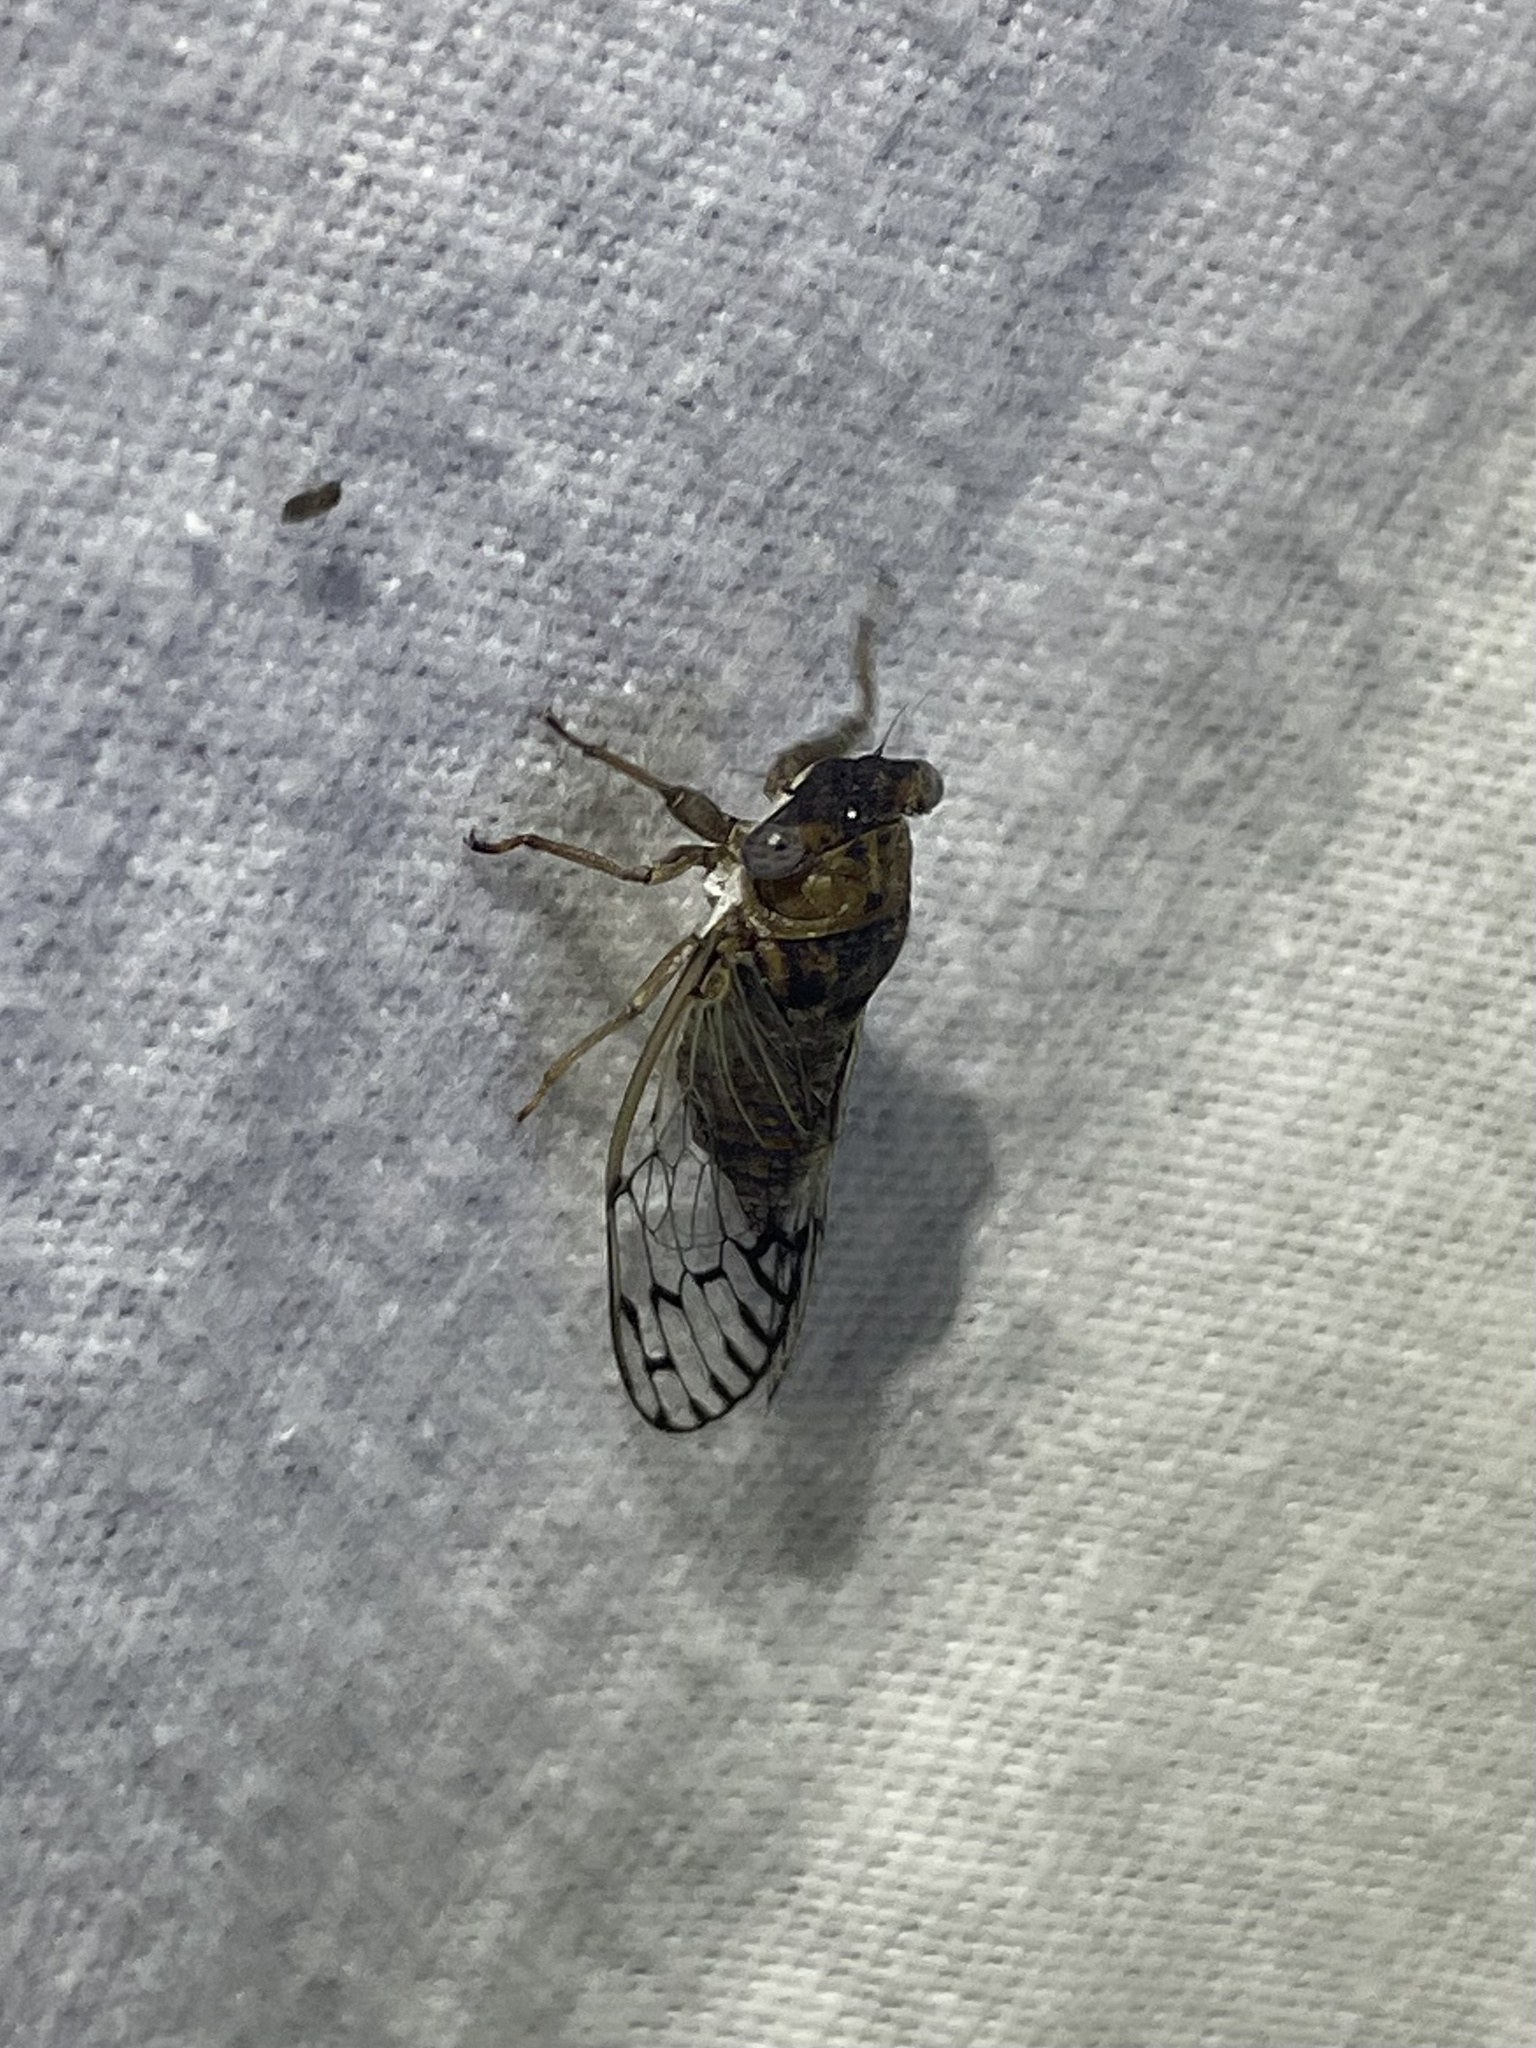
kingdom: Animalia
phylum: Arthropoda
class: Insecta
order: Hemiptera
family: Cicadidae
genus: Pacarina
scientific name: Pacarina puella
